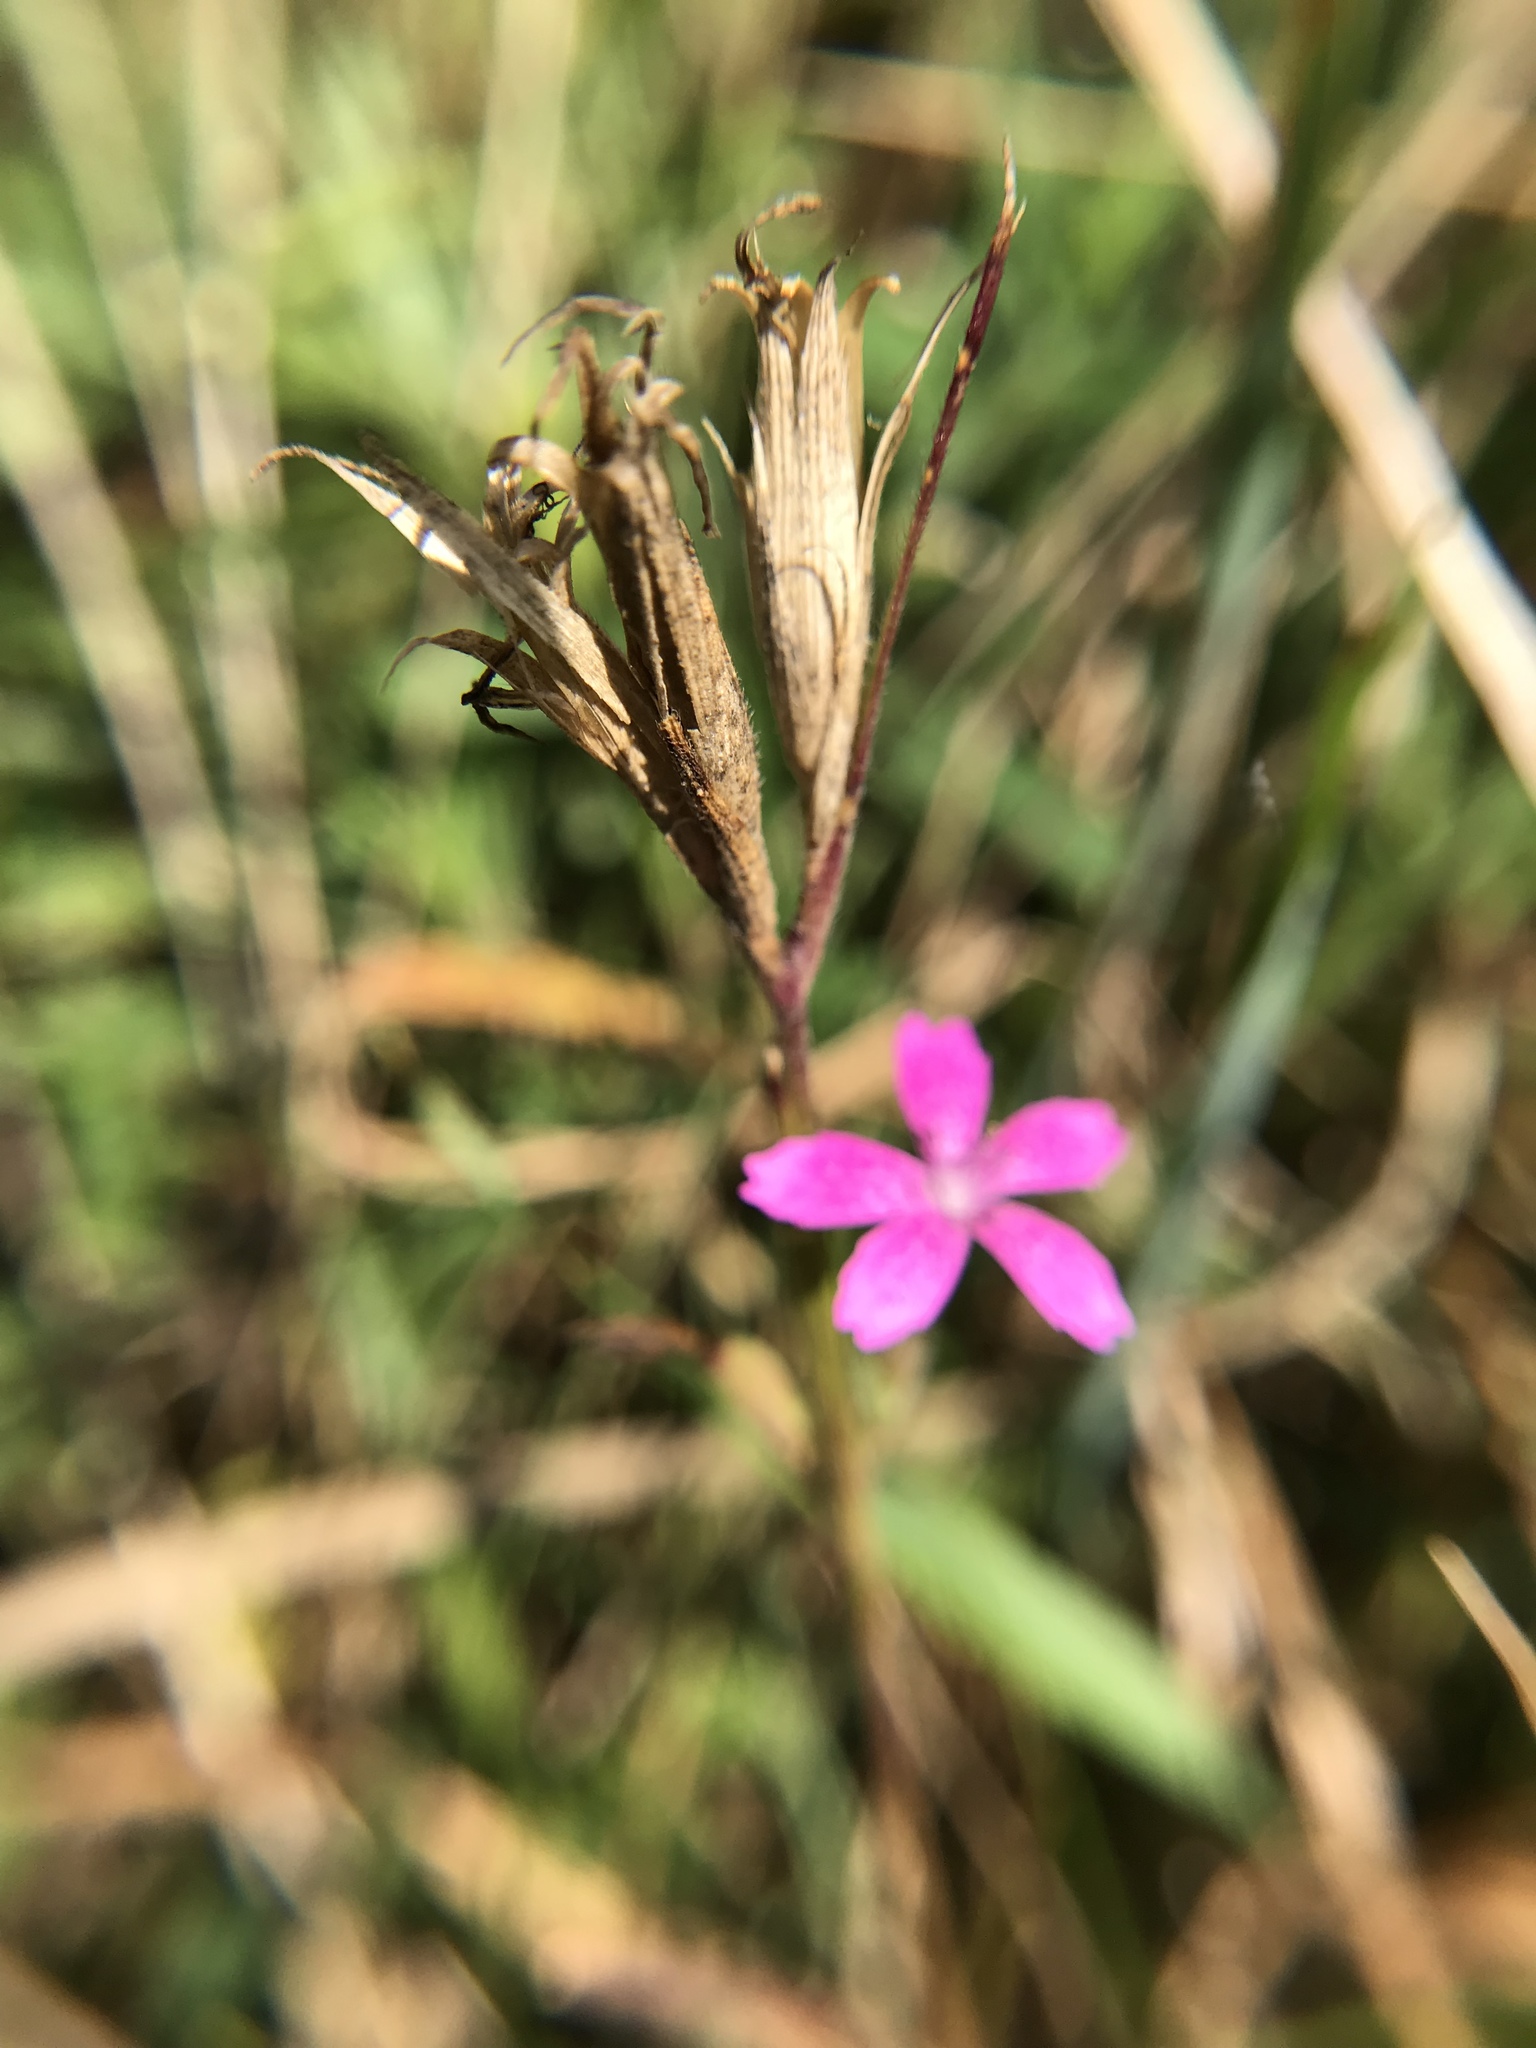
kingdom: Plantae
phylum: Tracheophyta
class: Magnoliopsida
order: Caryophyllales
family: Caryophyllaceae
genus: Dianthus
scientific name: Dianthus armeria
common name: Deptford pink
